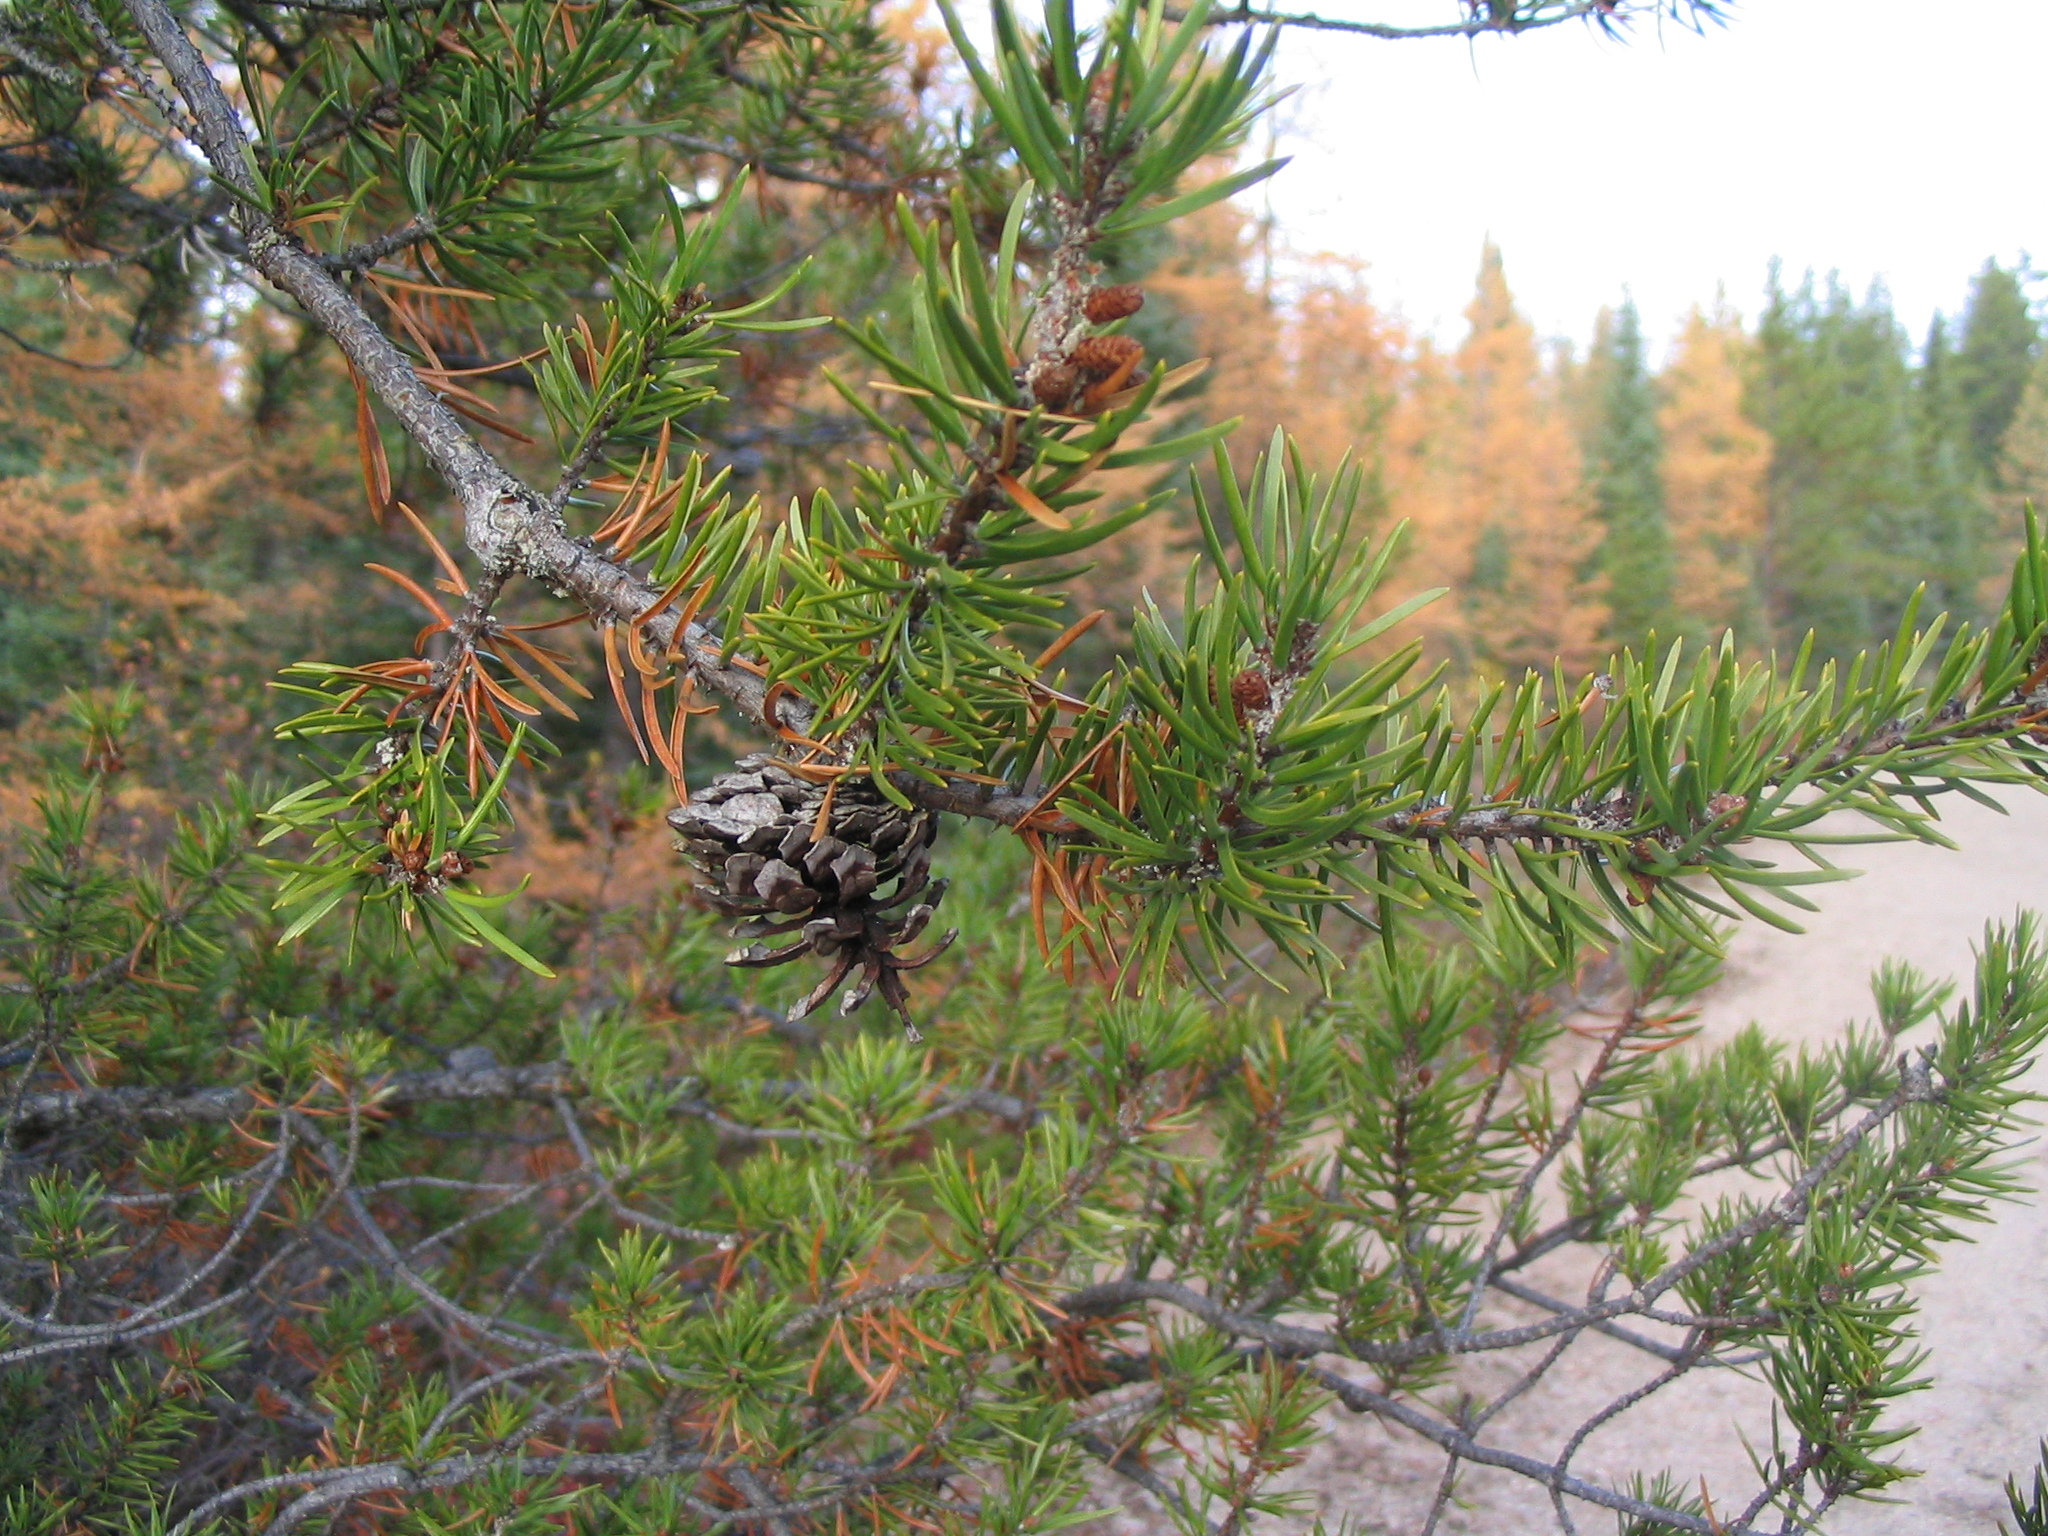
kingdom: Plantae
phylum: Tracheophyta
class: Pinopsida
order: Pinales
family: Pinaceae
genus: Pinus
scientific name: Pinus banksiana
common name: Jack pine
